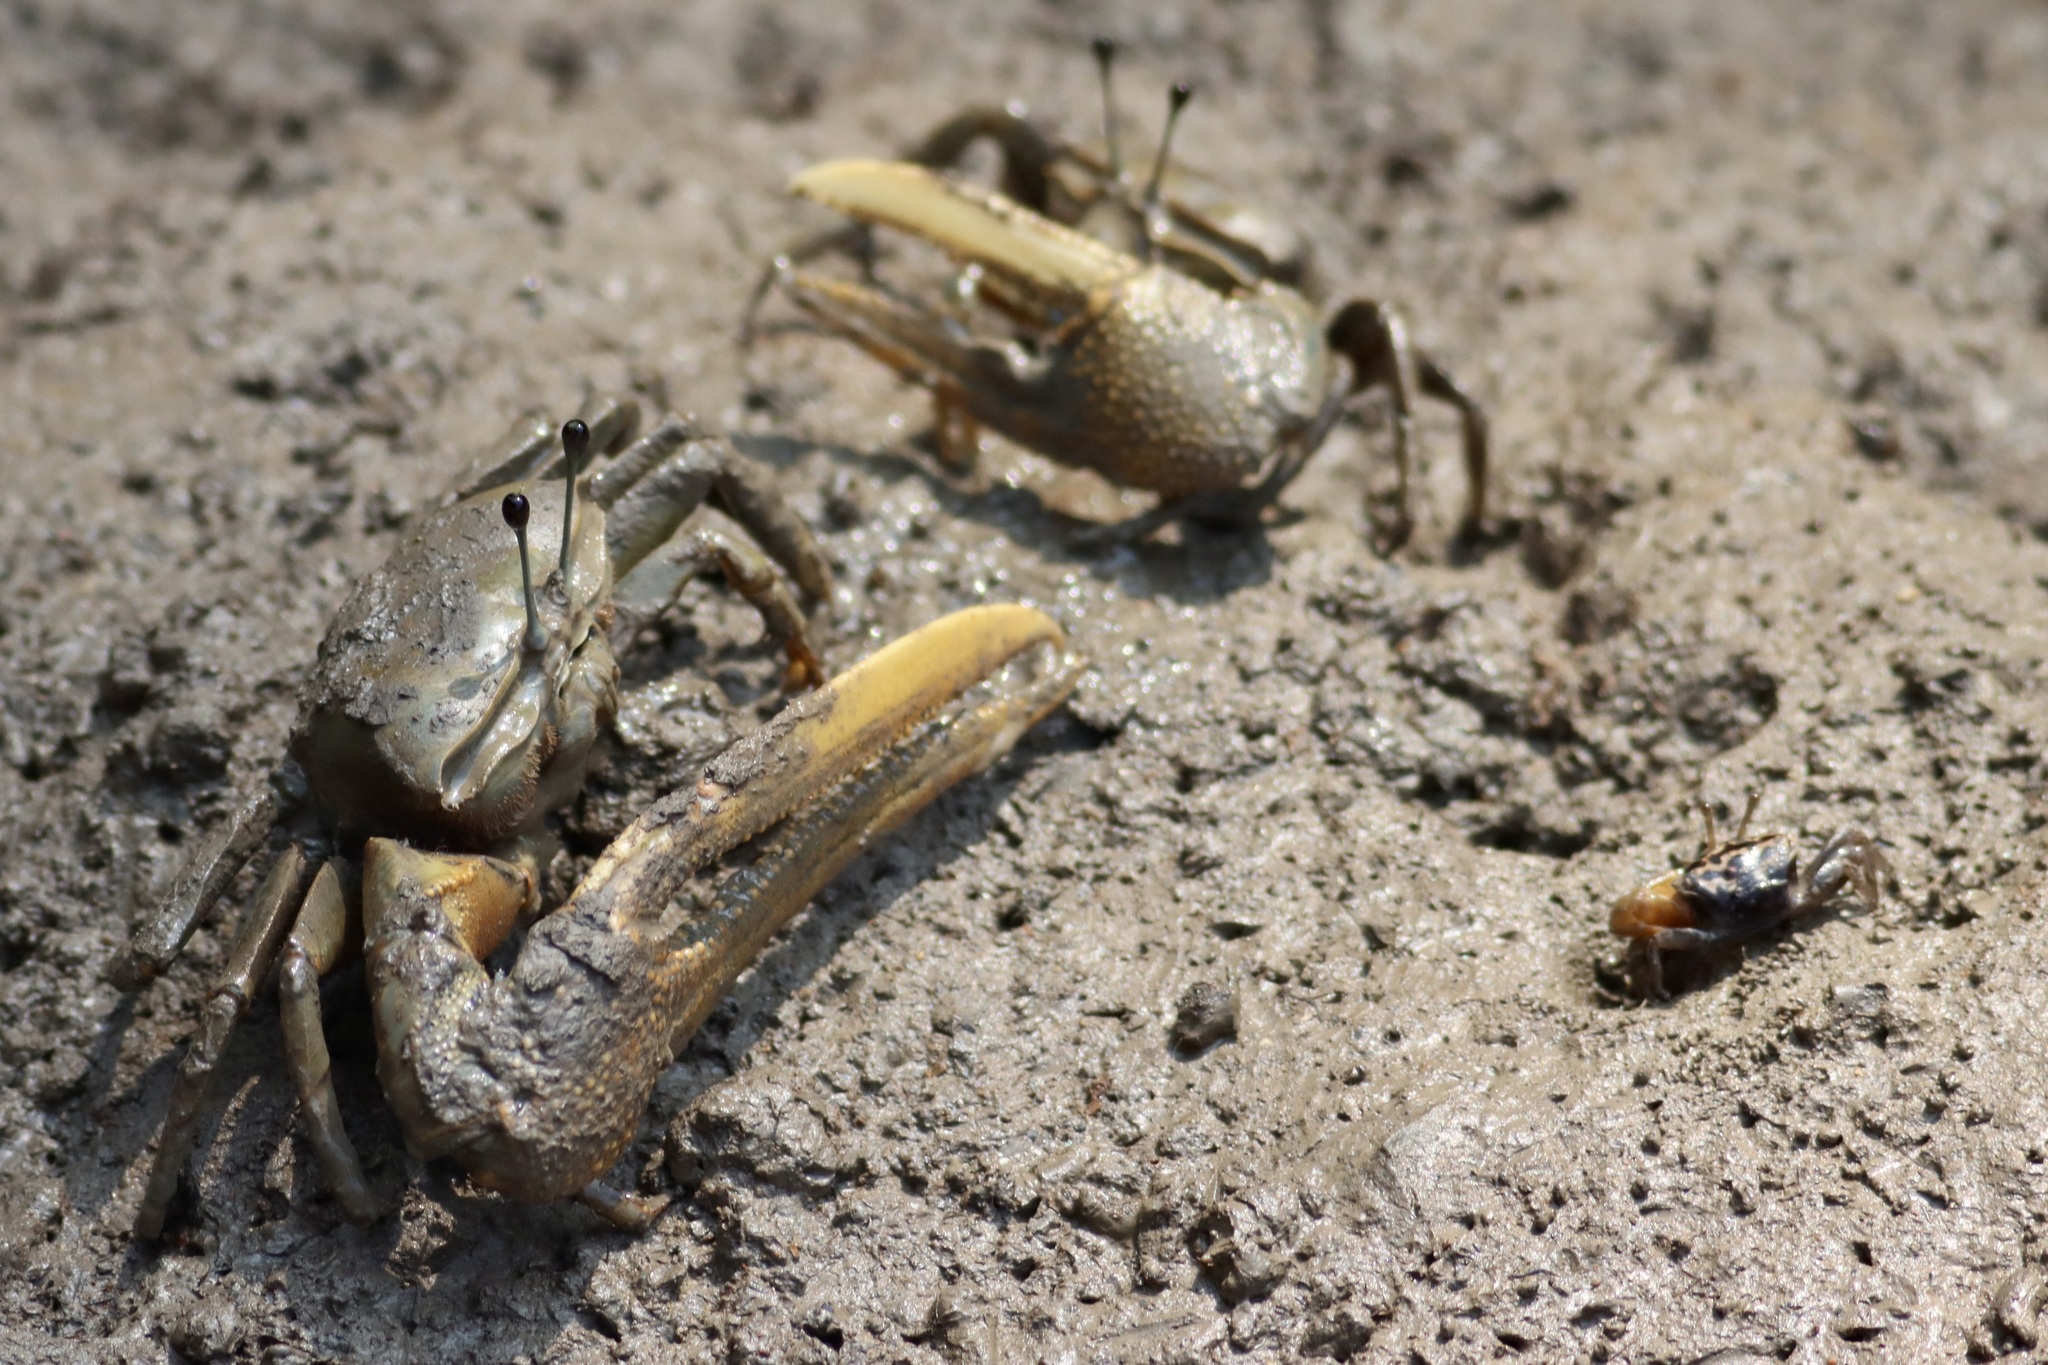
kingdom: Animalia
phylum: Arthropoda
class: Malacostraca
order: Decapoda
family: Ocypodidae
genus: Tubuca
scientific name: Tubuca paradussumieri
